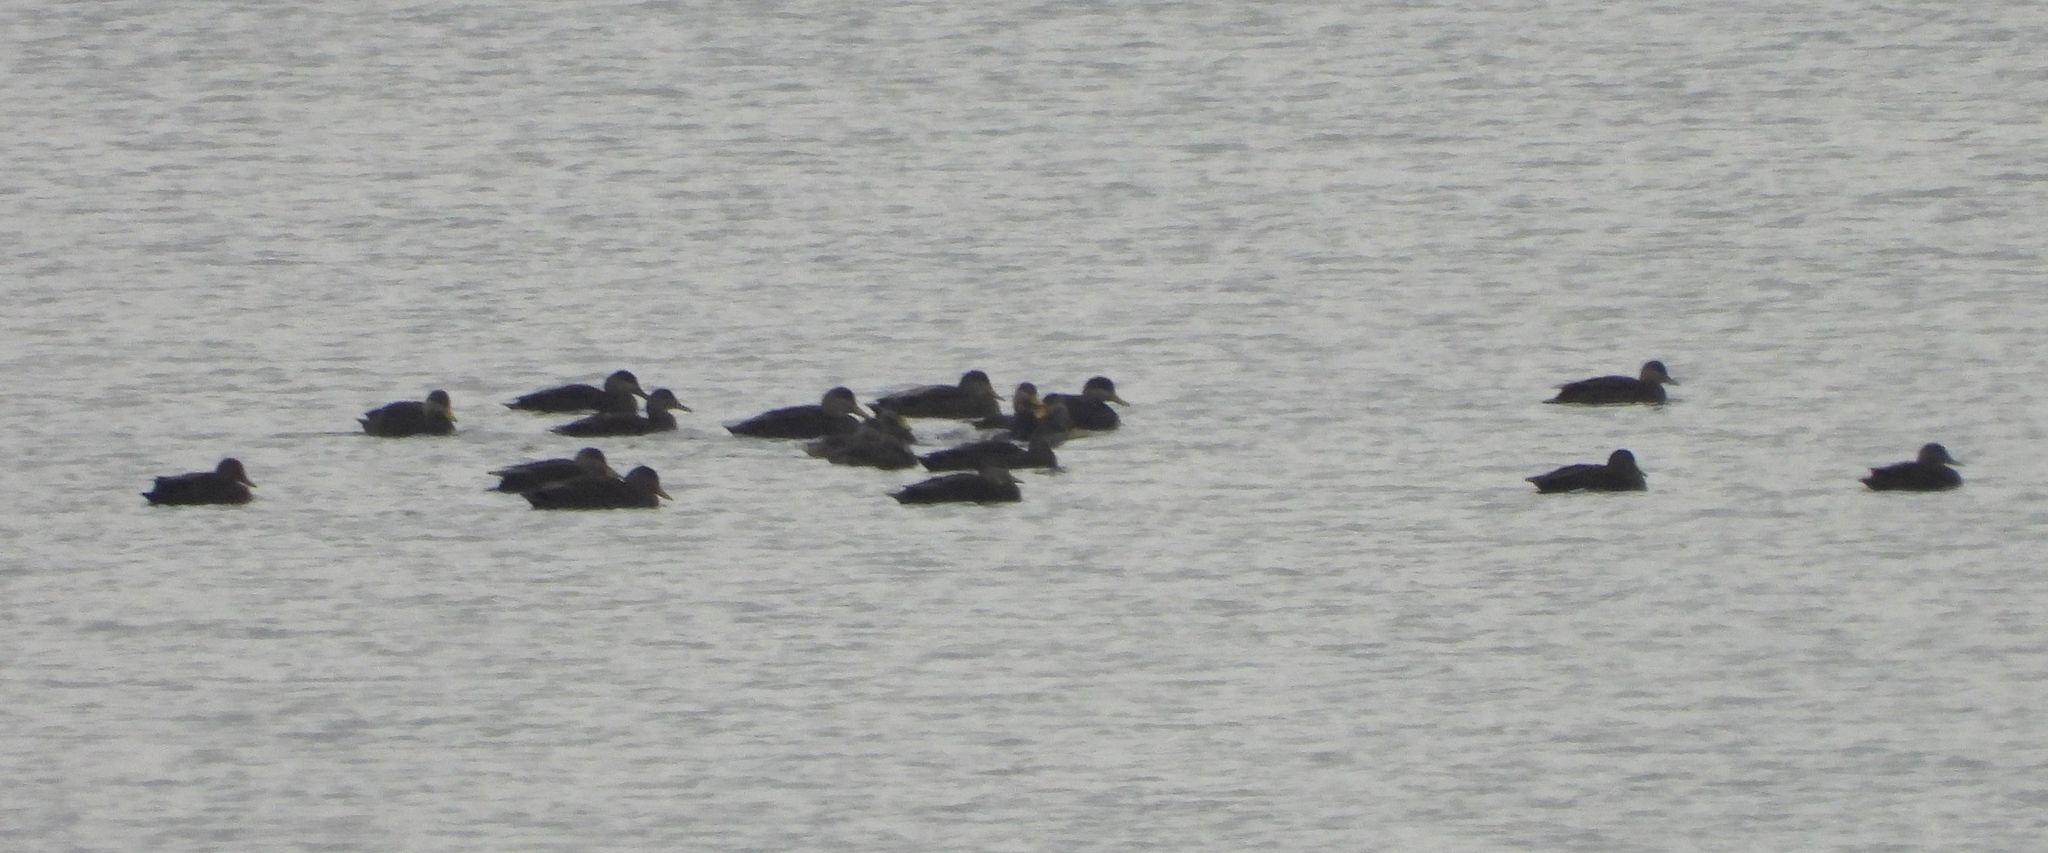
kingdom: Animalia
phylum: Chordata
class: Aves
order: Anseriformes
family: Anatidae
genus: Anas
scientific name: Anas rubripes
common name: American black duck
